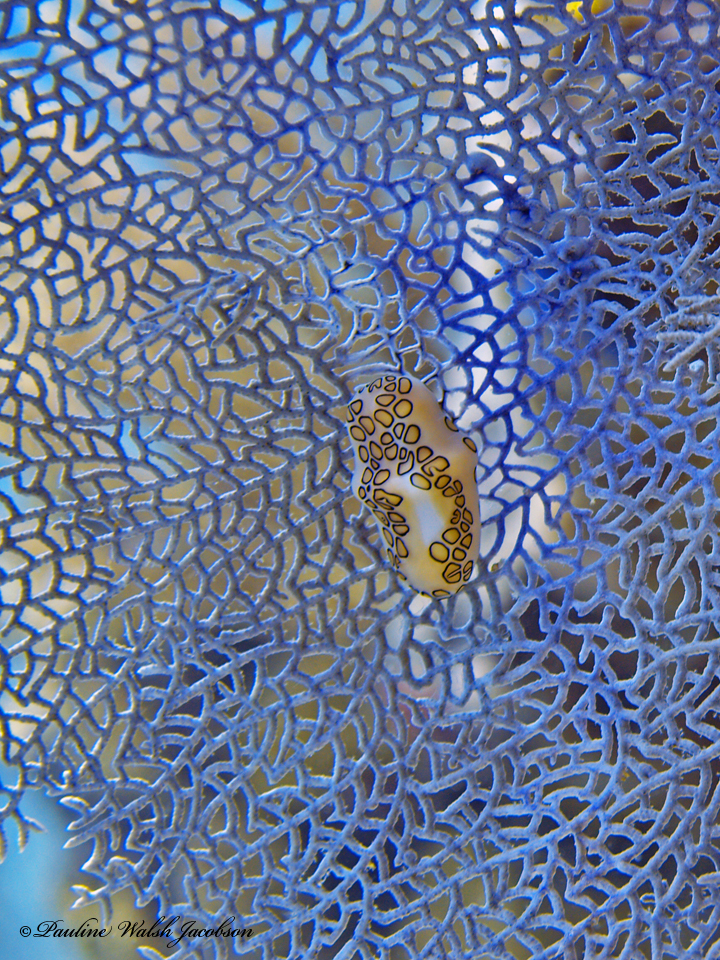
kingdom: Animalia
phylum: Mollusca
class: Gastropoda
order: Littorinimorpha
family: Ovulidae
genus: Cyphoma
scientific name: Cyphoma gibbosum
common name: Flamingo tongue
